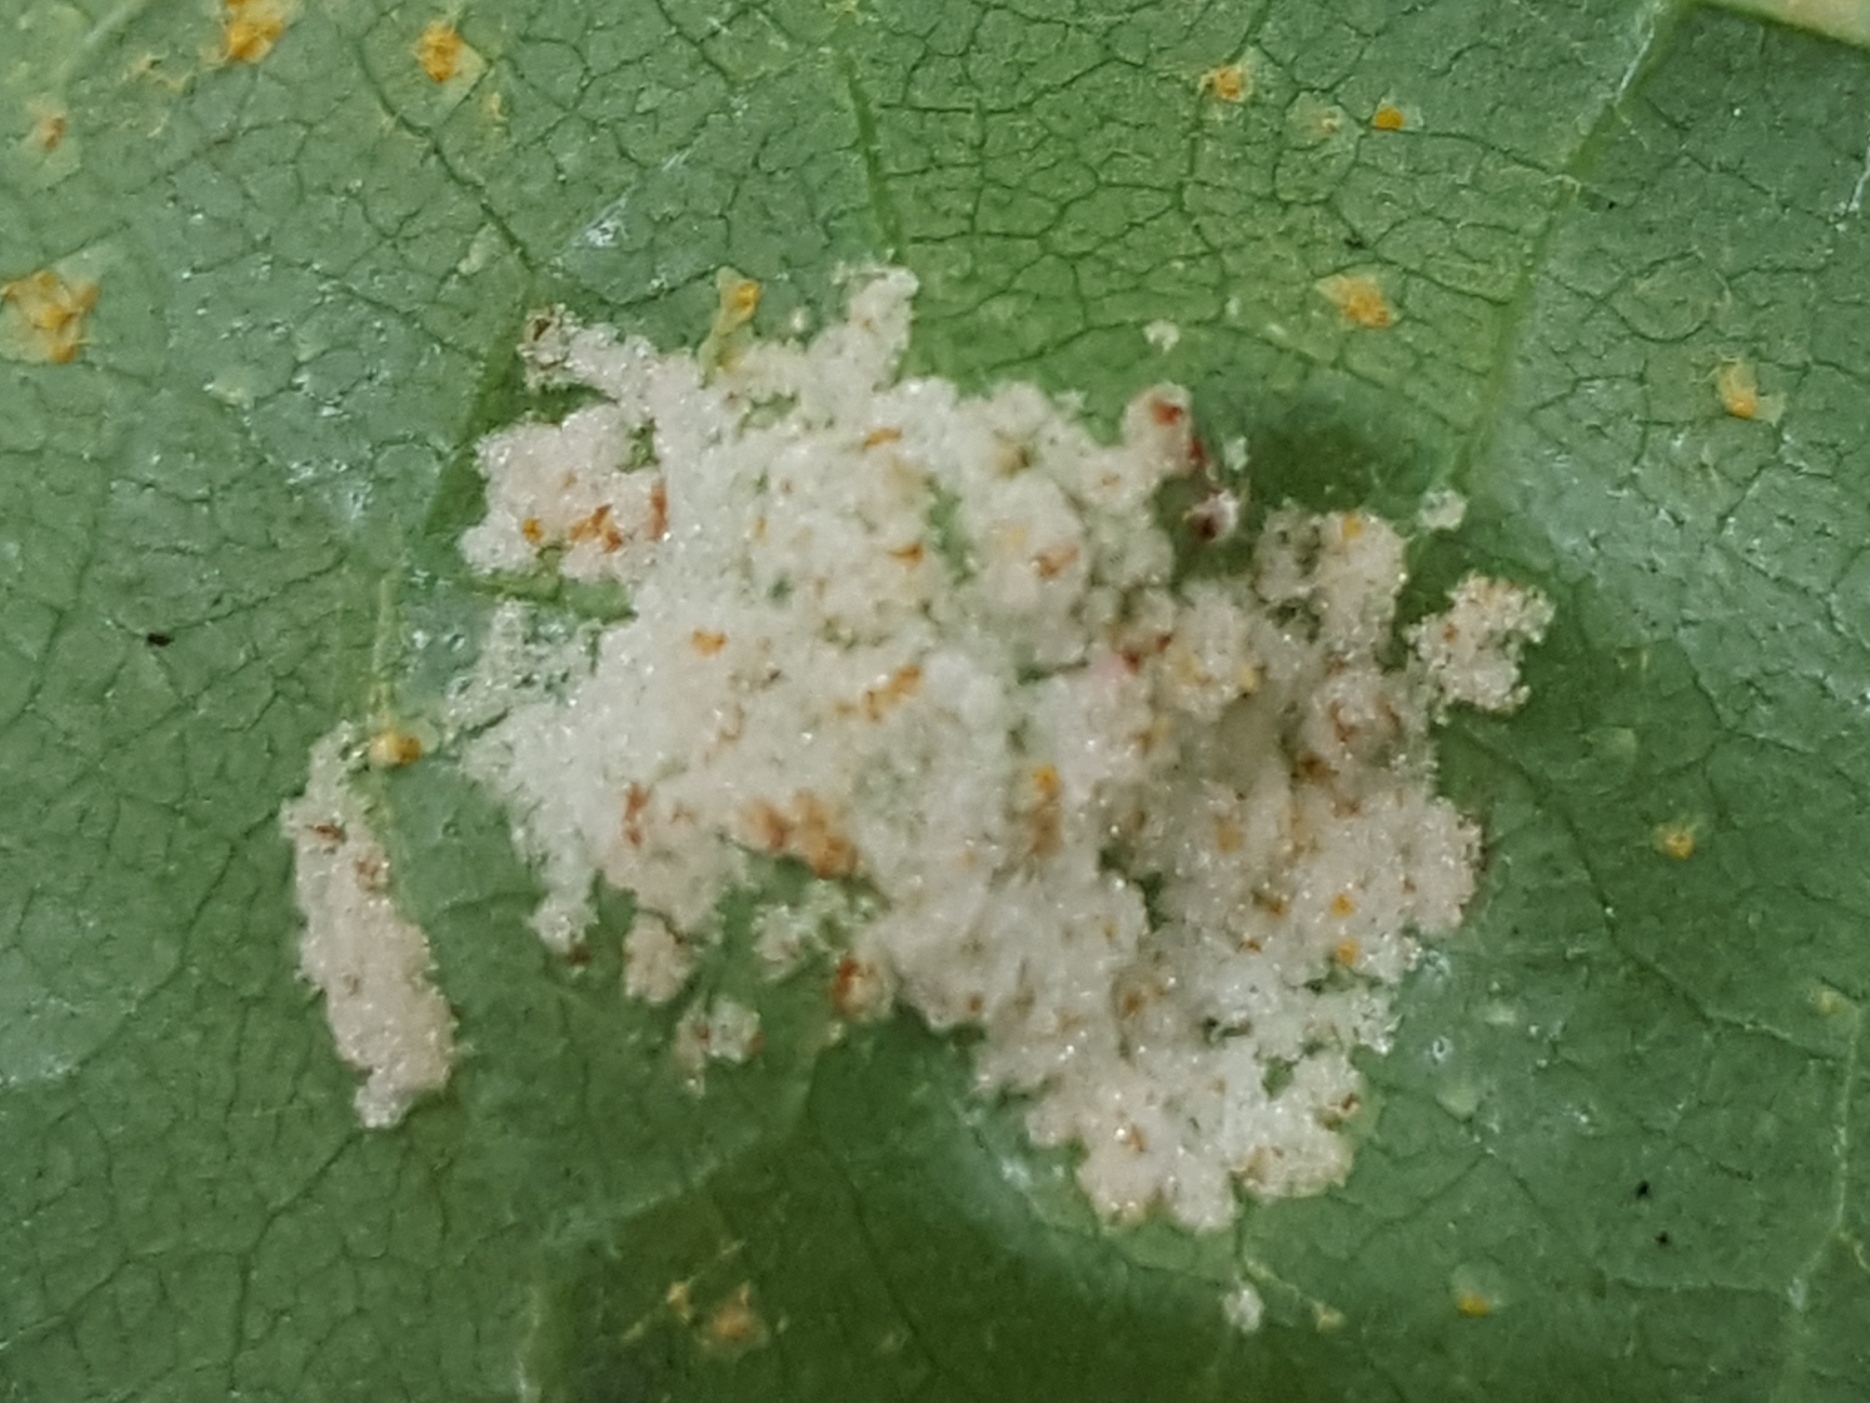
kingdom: Animalia
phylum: Arthropoda
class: Arachnida
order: Trombidiformes
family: Eriophyidae
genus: Acalitus
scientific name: Acalitus brevitarsus
